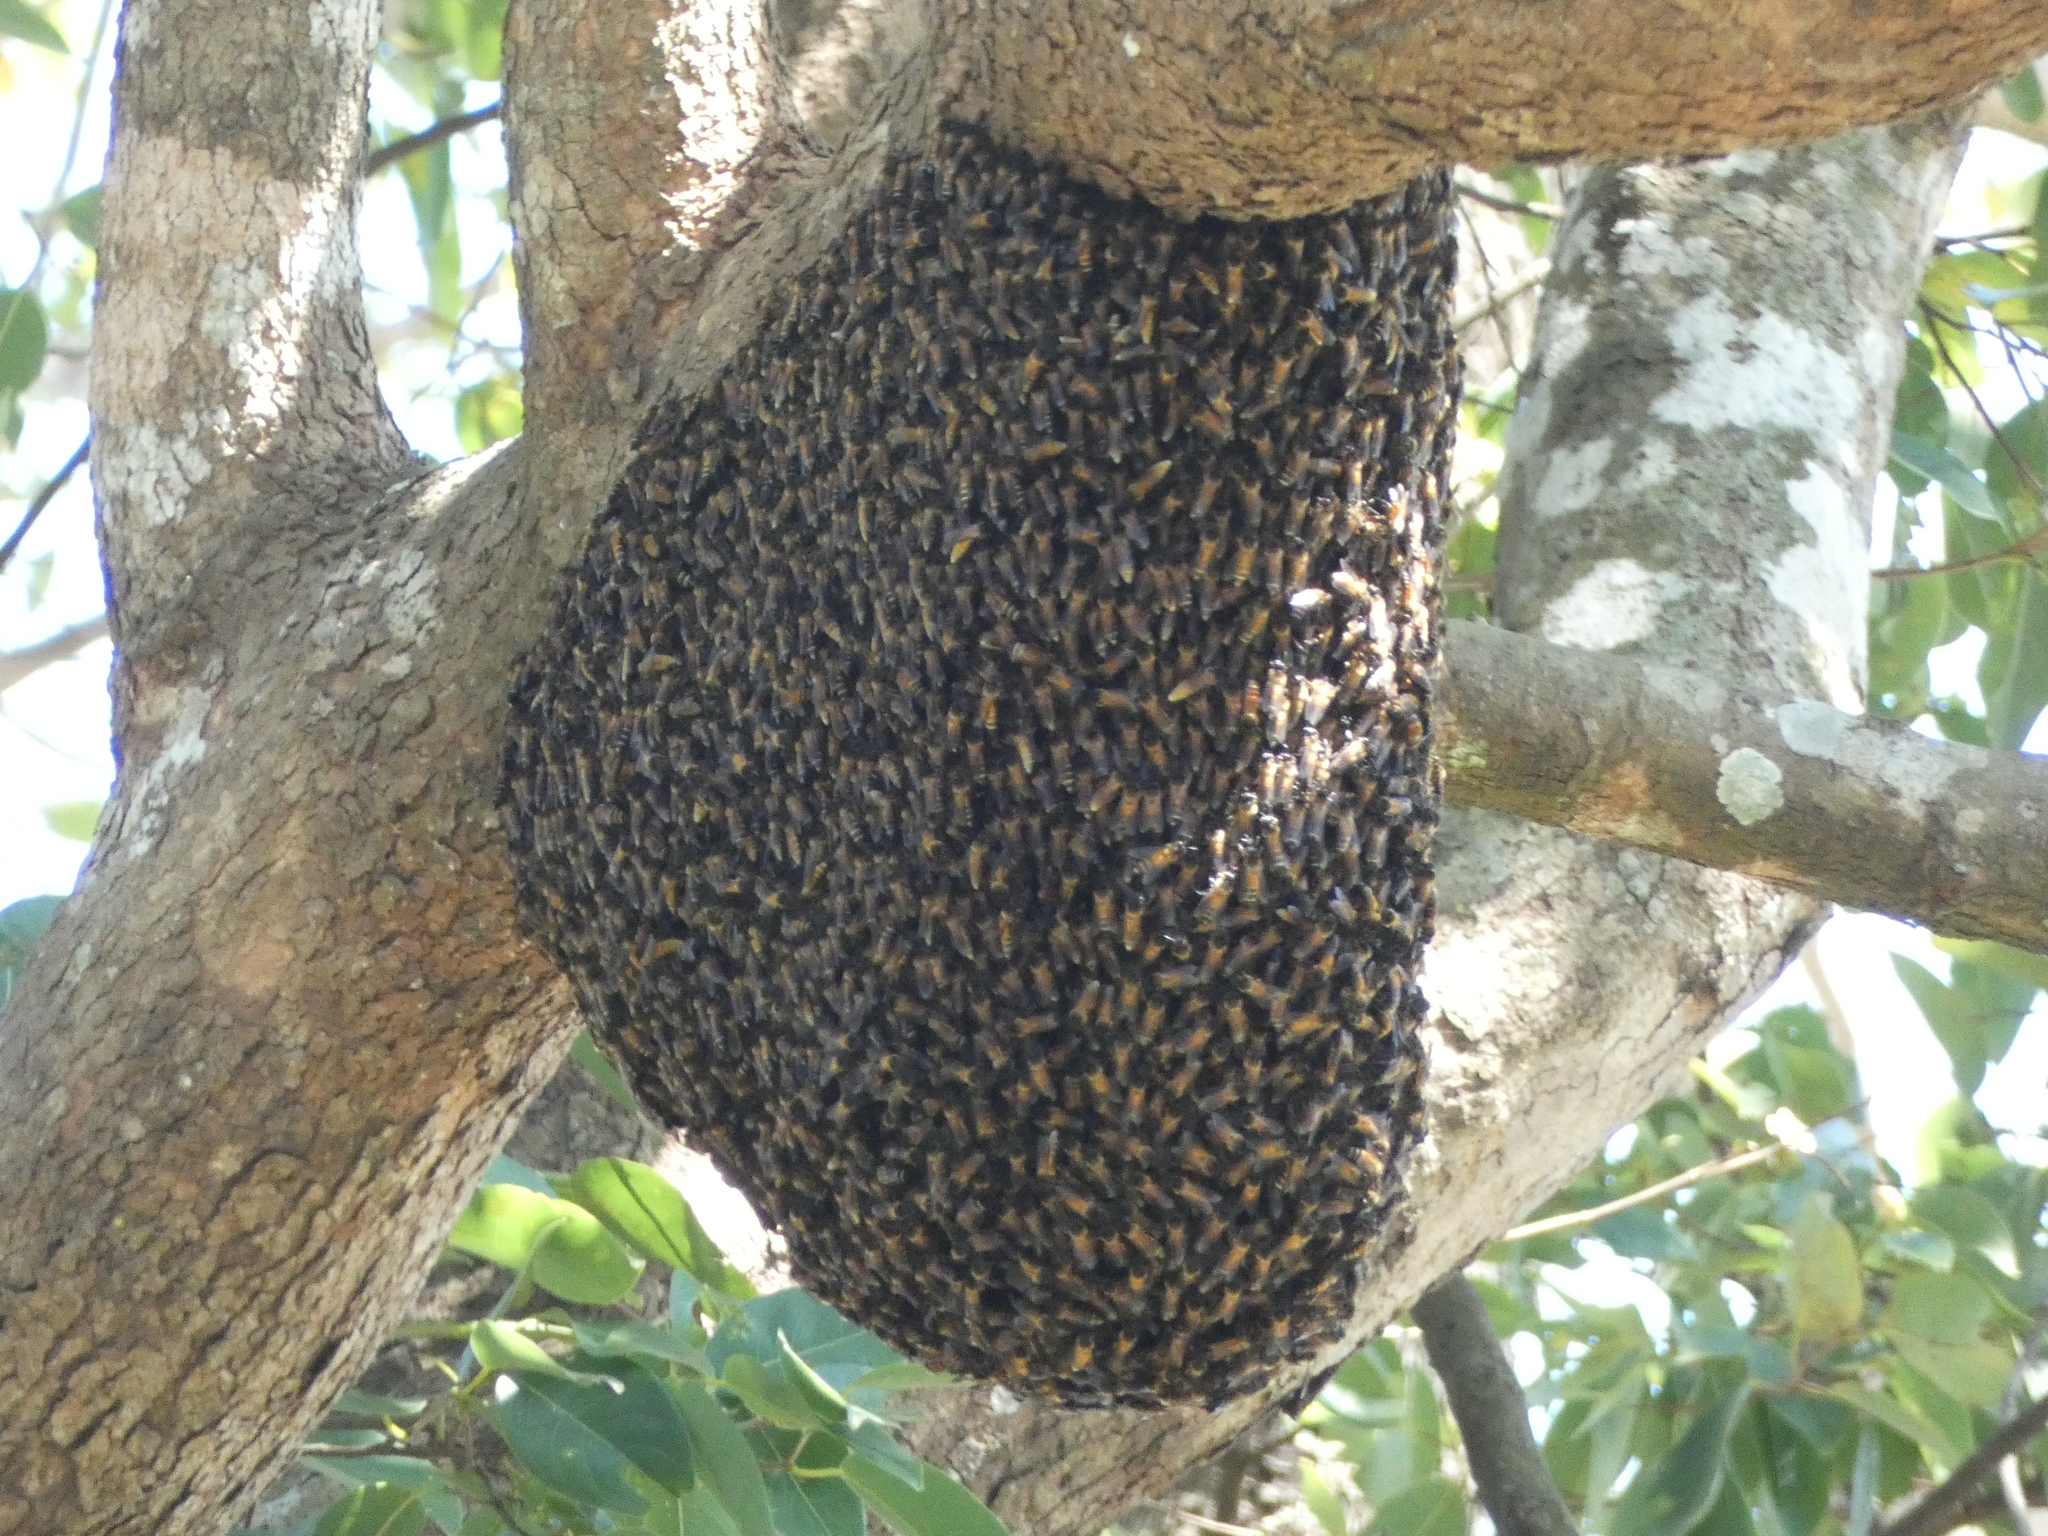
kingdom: Animalia
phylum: Arthropoda
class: Insecta
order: Hymenoptera
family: Apidae
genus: Apis
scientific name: Apis dorsata
